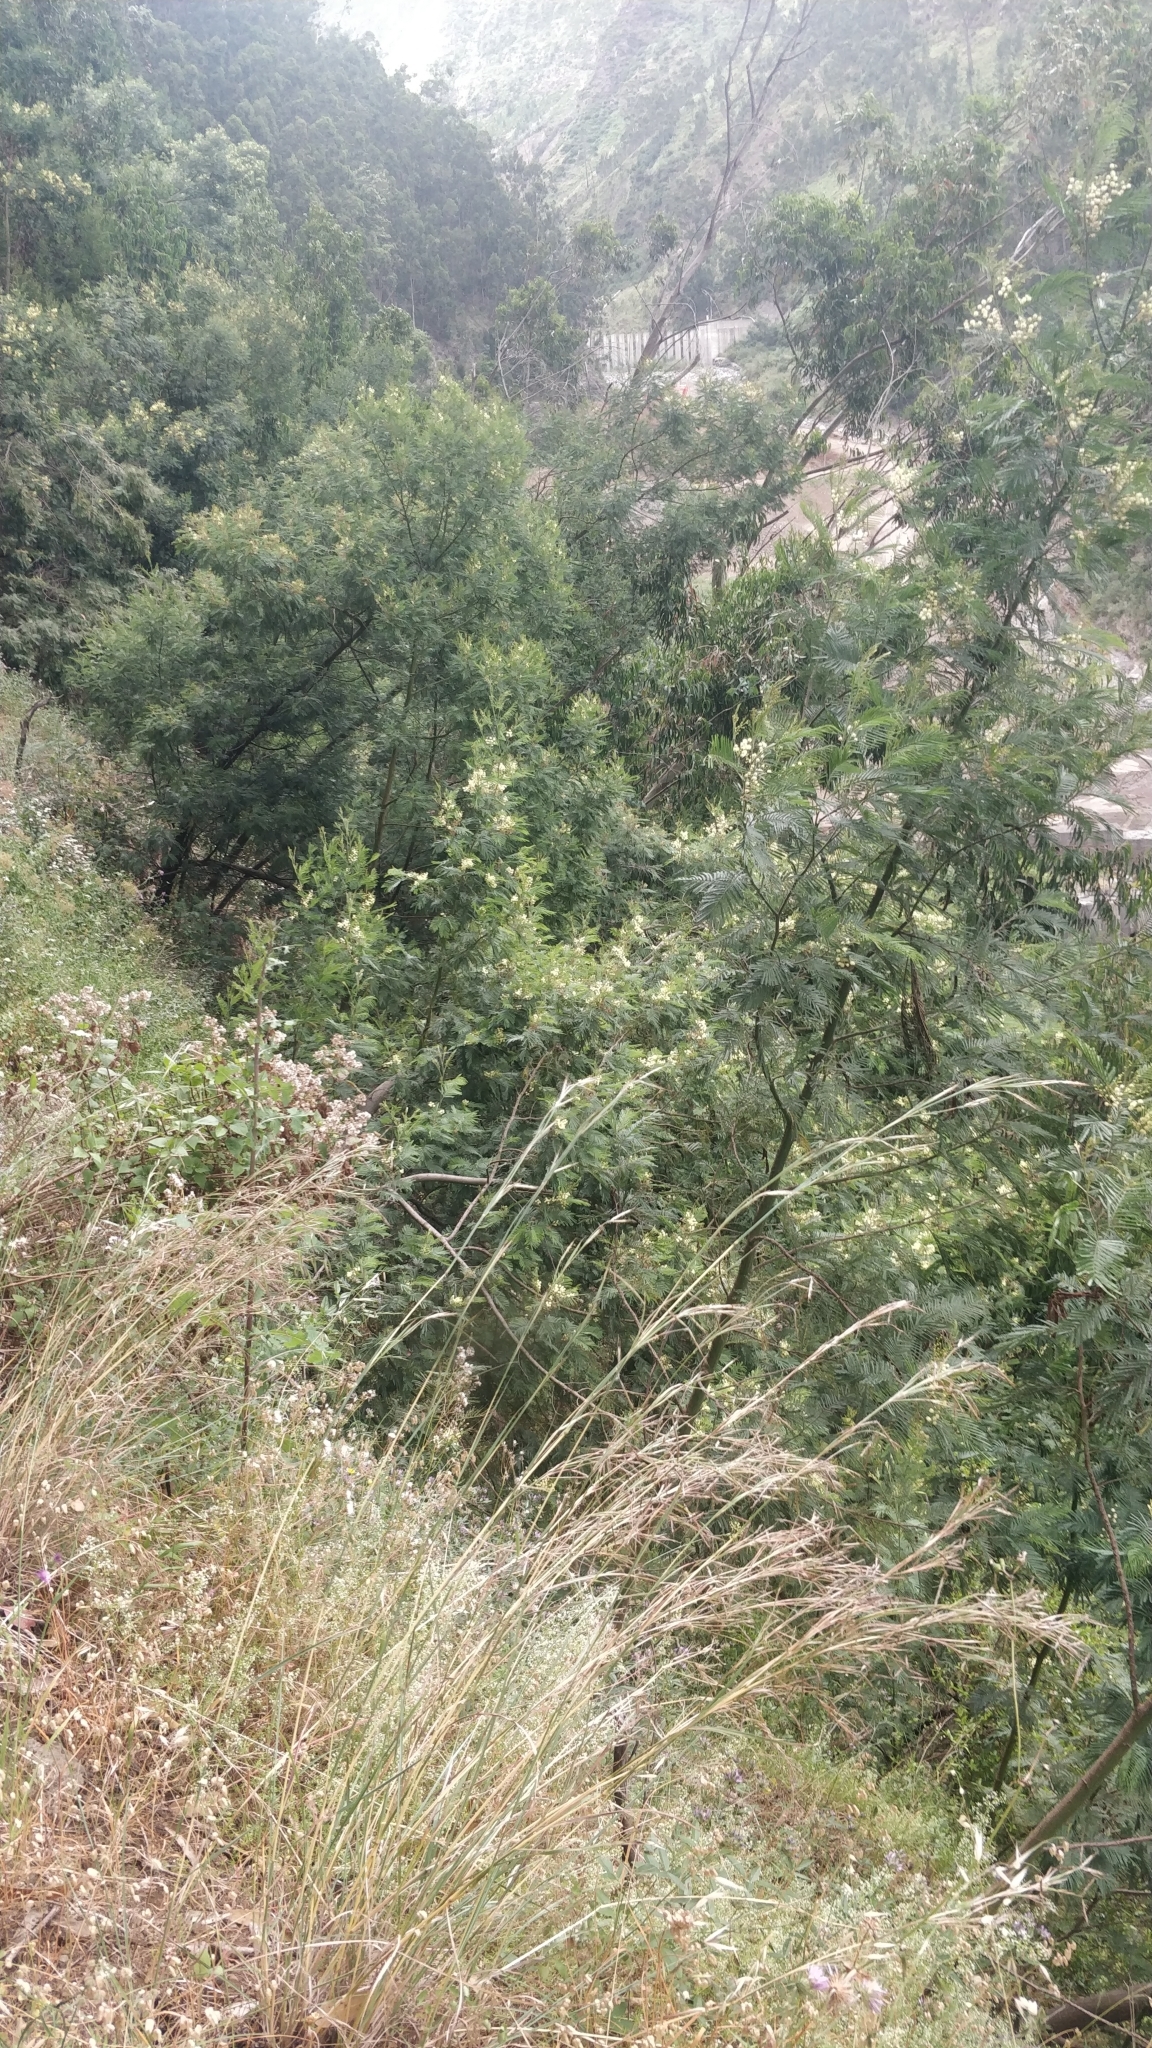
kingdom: Plantae
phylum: Tracheophyta
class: Magnoliopsida
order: Fabales
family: Fabaceae
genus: Acacia
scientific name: Acacia mearnsii
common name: Black wattle
